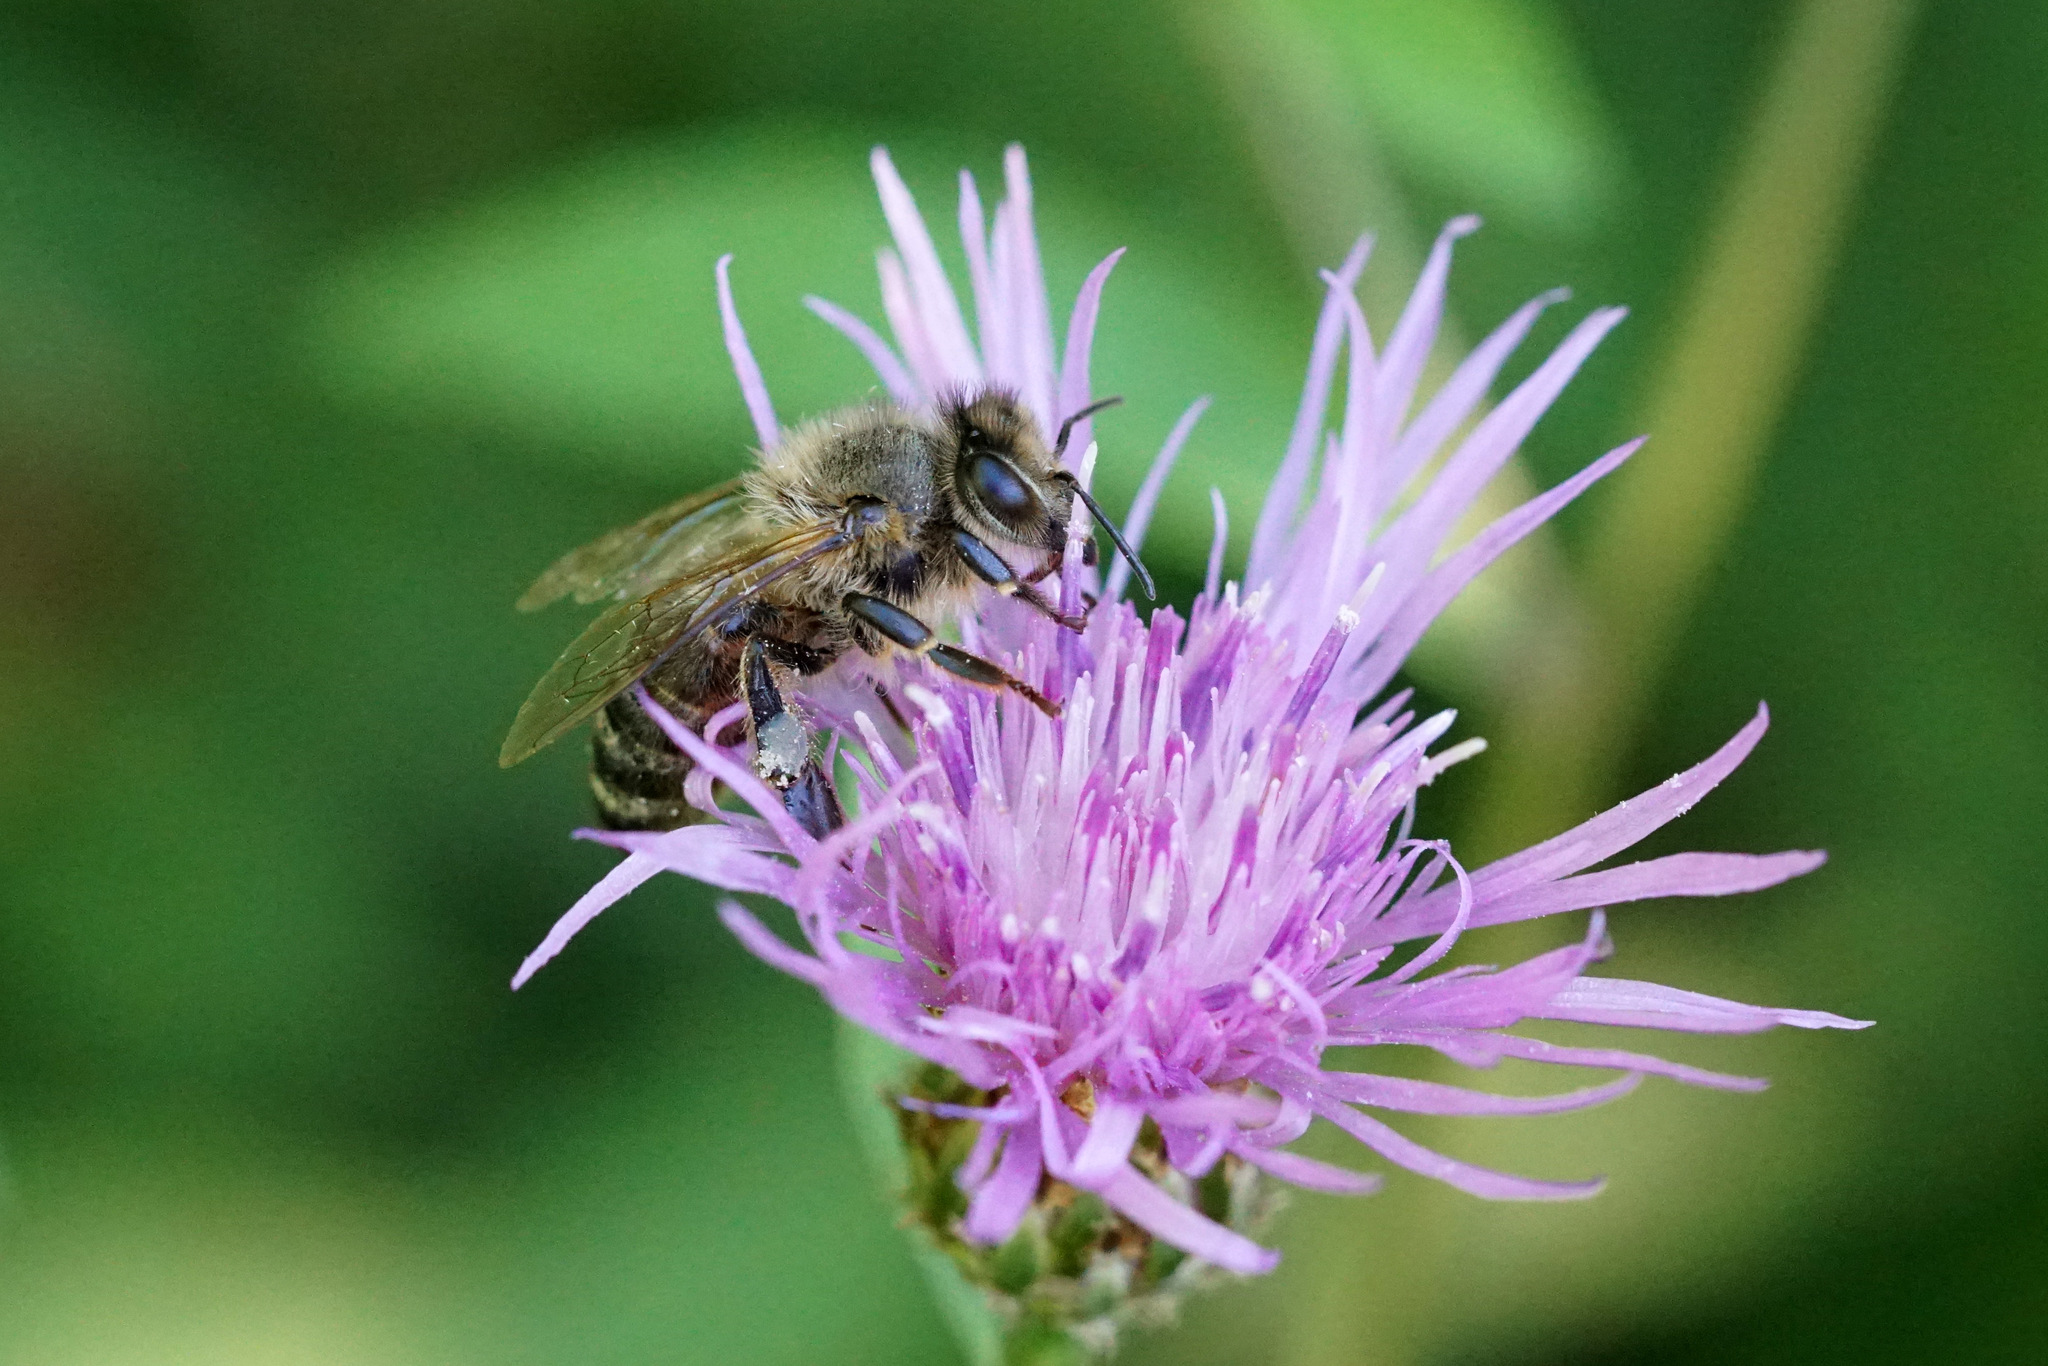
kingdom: Animalia
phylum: Arthropoda
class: Insecta
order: Hymenoptera
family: Apidae
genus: Apis
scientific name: Apis mellifera
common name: Honey bee
